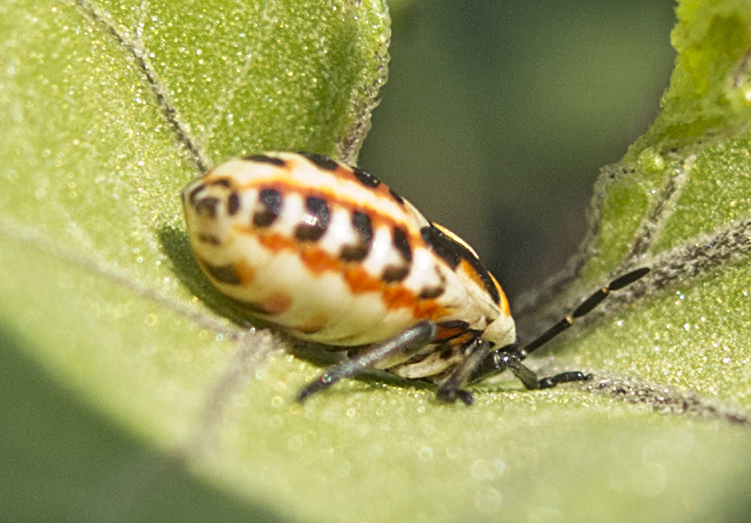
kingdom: Animalia
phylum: Arthropoda
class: Insecta
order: Hemiptera
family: Pentatomidae
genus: Eurydema
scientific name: Eurydema ornata
